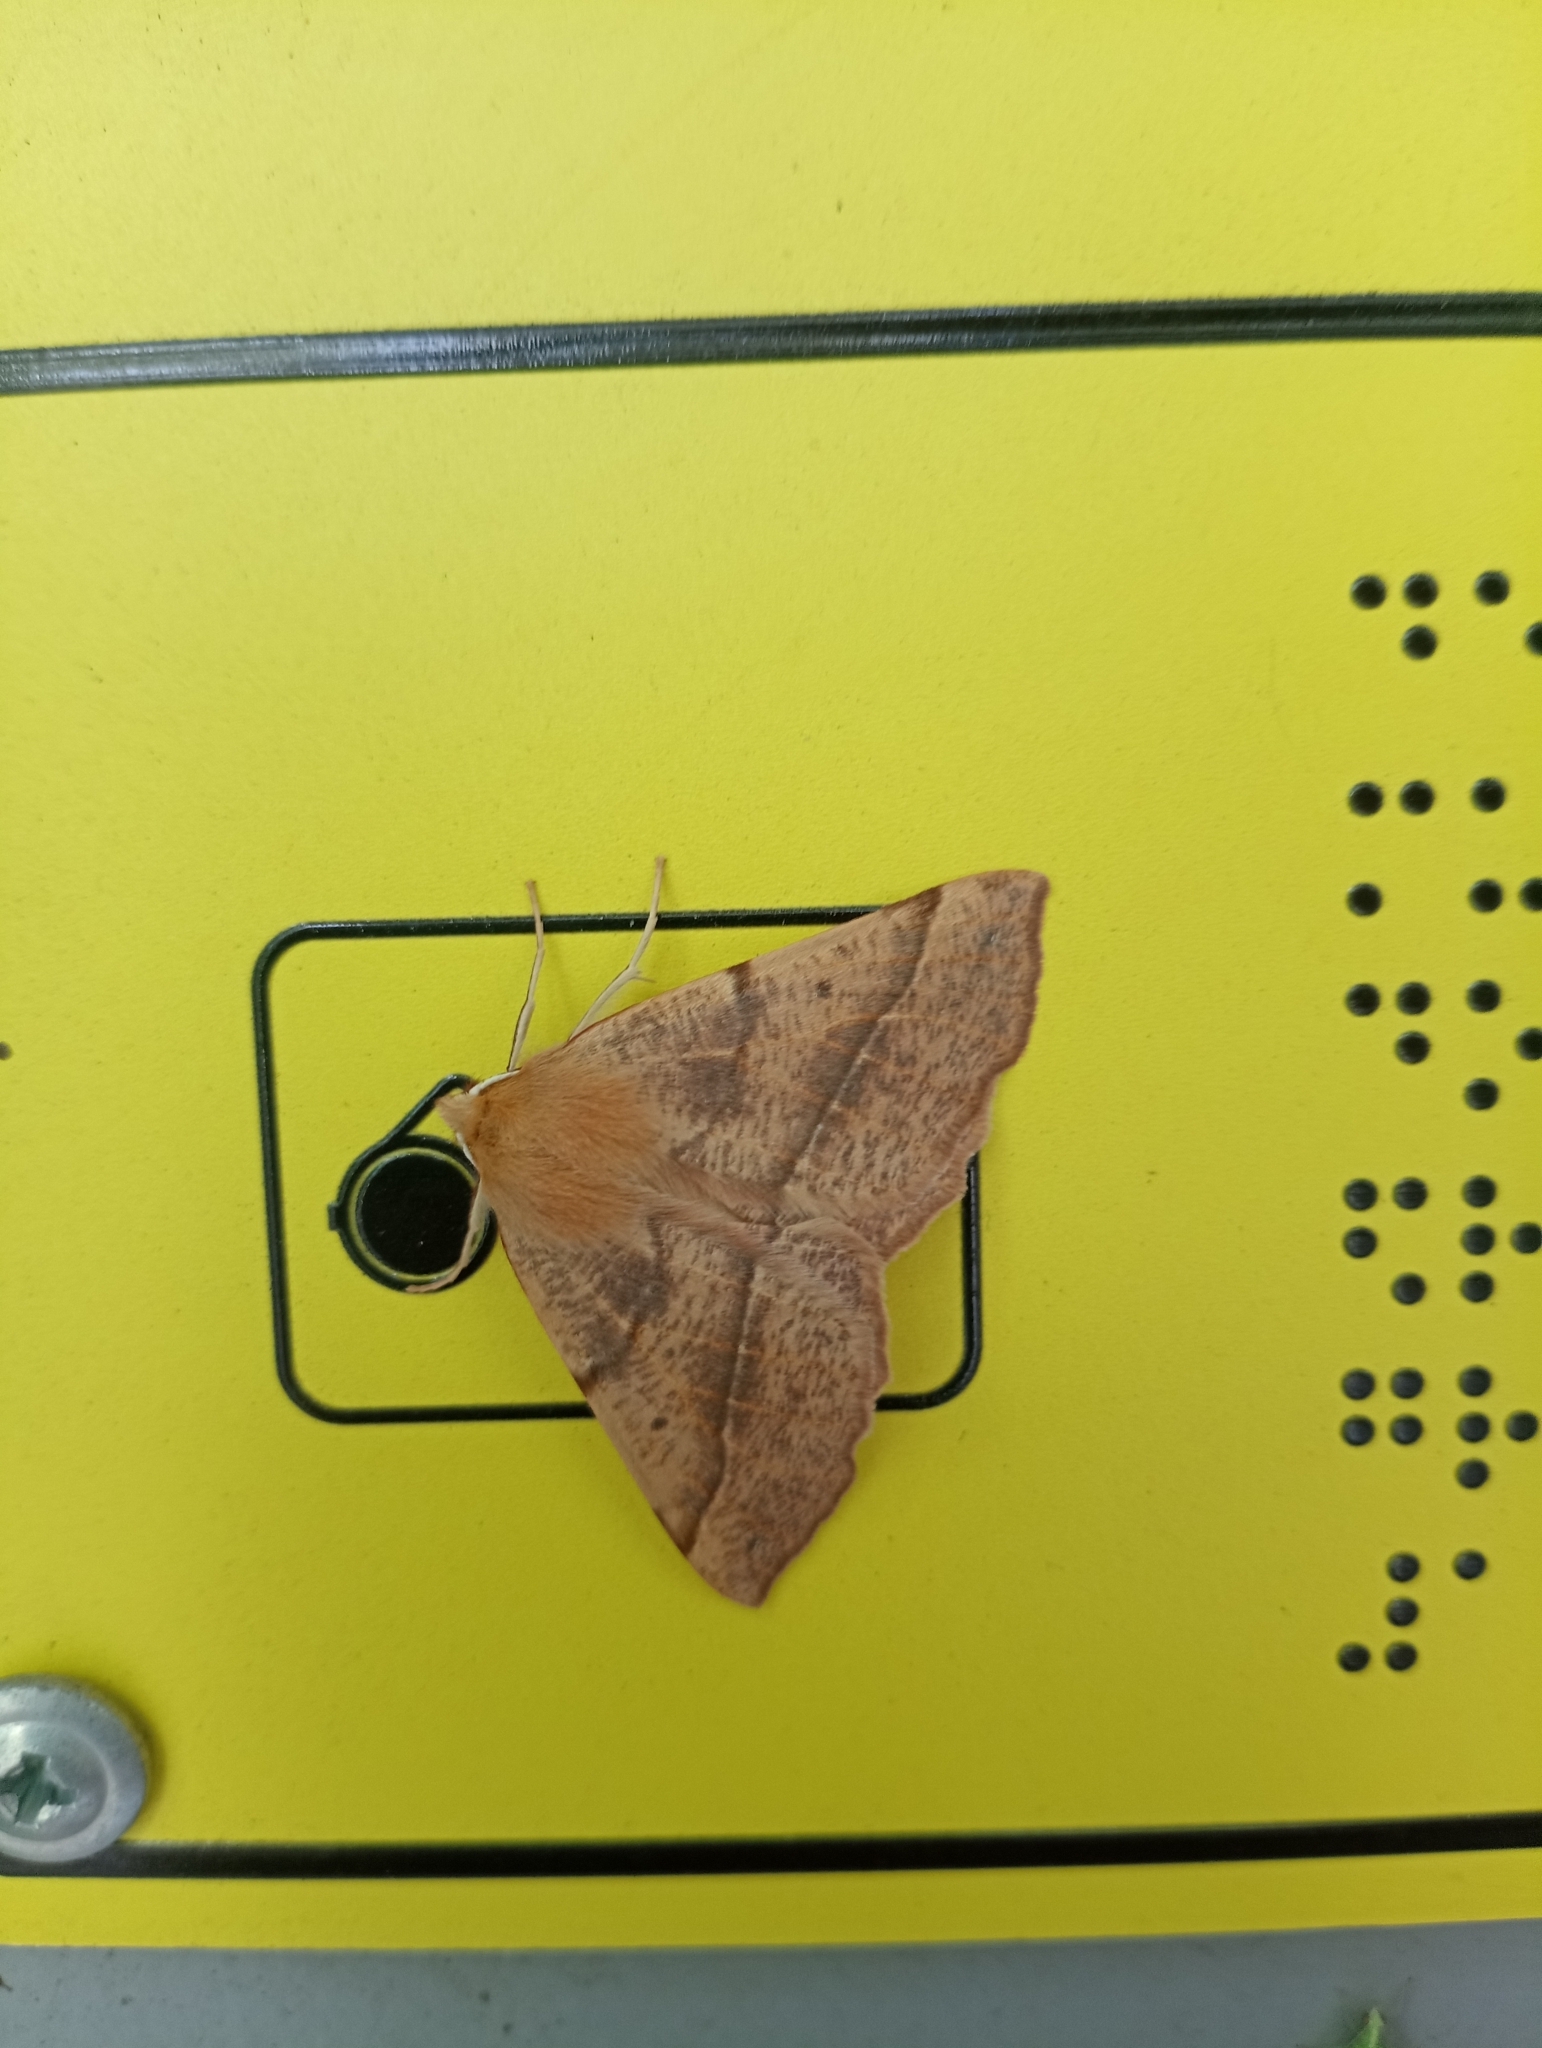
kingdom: Animalia
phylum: Arthropoda
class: Insecta
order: Lepidoptera
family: Geometridae
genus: Colotois
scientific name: Colotois pennaria
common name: Feathered thorn
